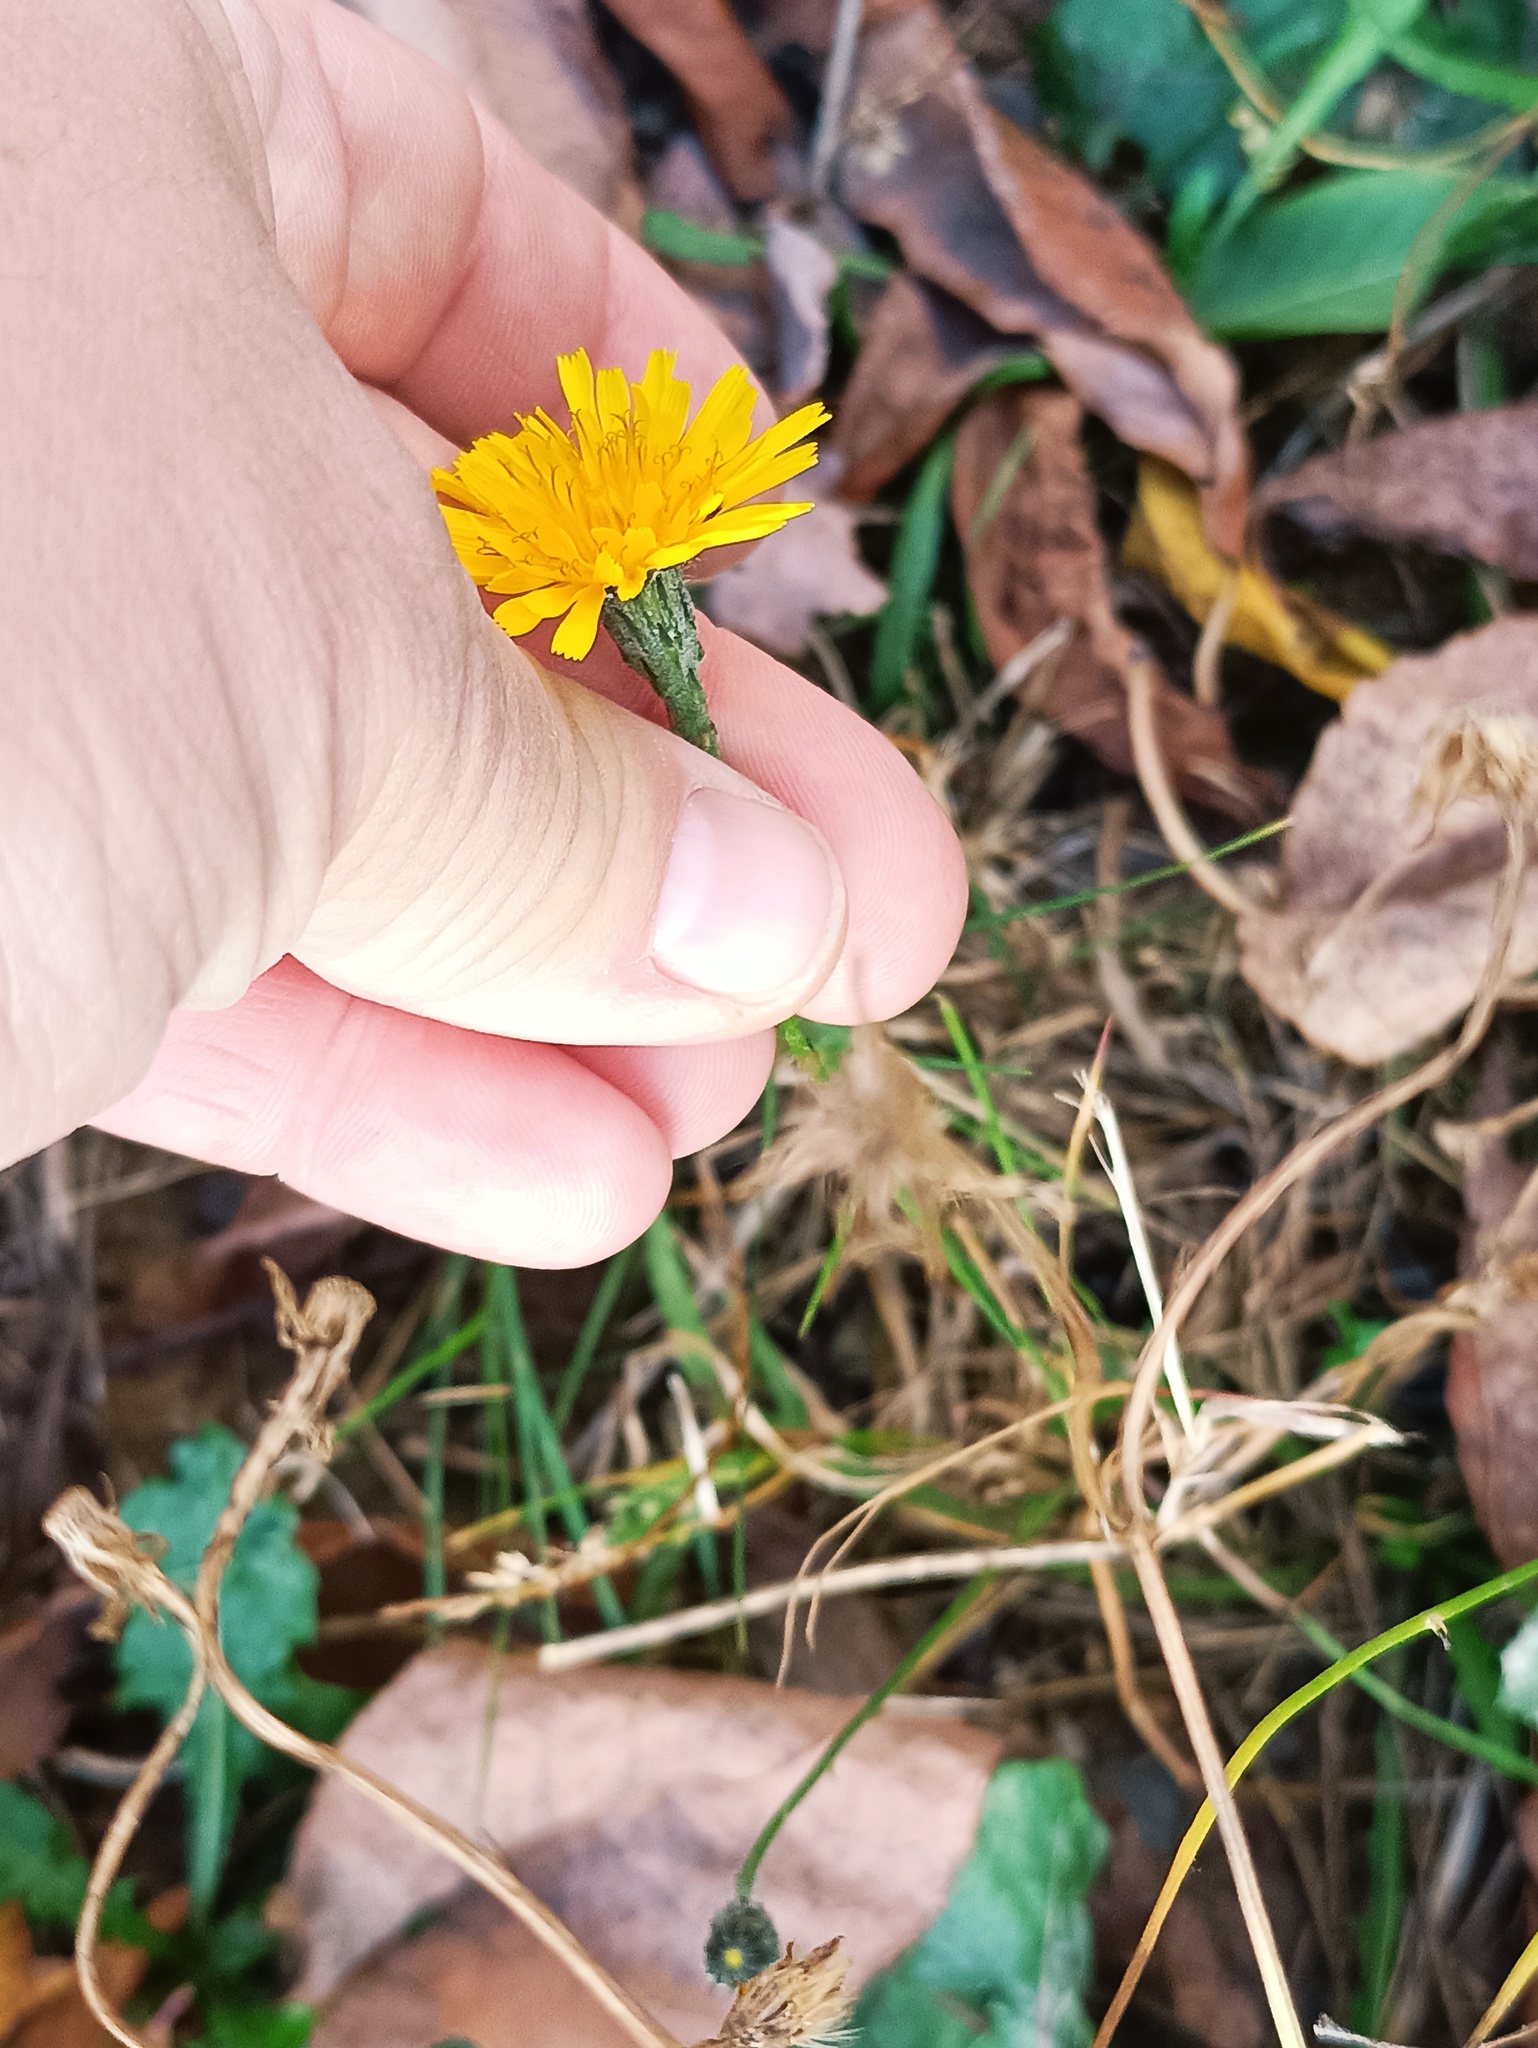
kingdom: Plantae
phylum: Tracheophyta
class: Magnoliopsida
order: Asterales
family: Asteraceae
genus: Scorzoneroides
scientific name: Scorzoneroides autumnalis
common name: Autumn hawkbit
